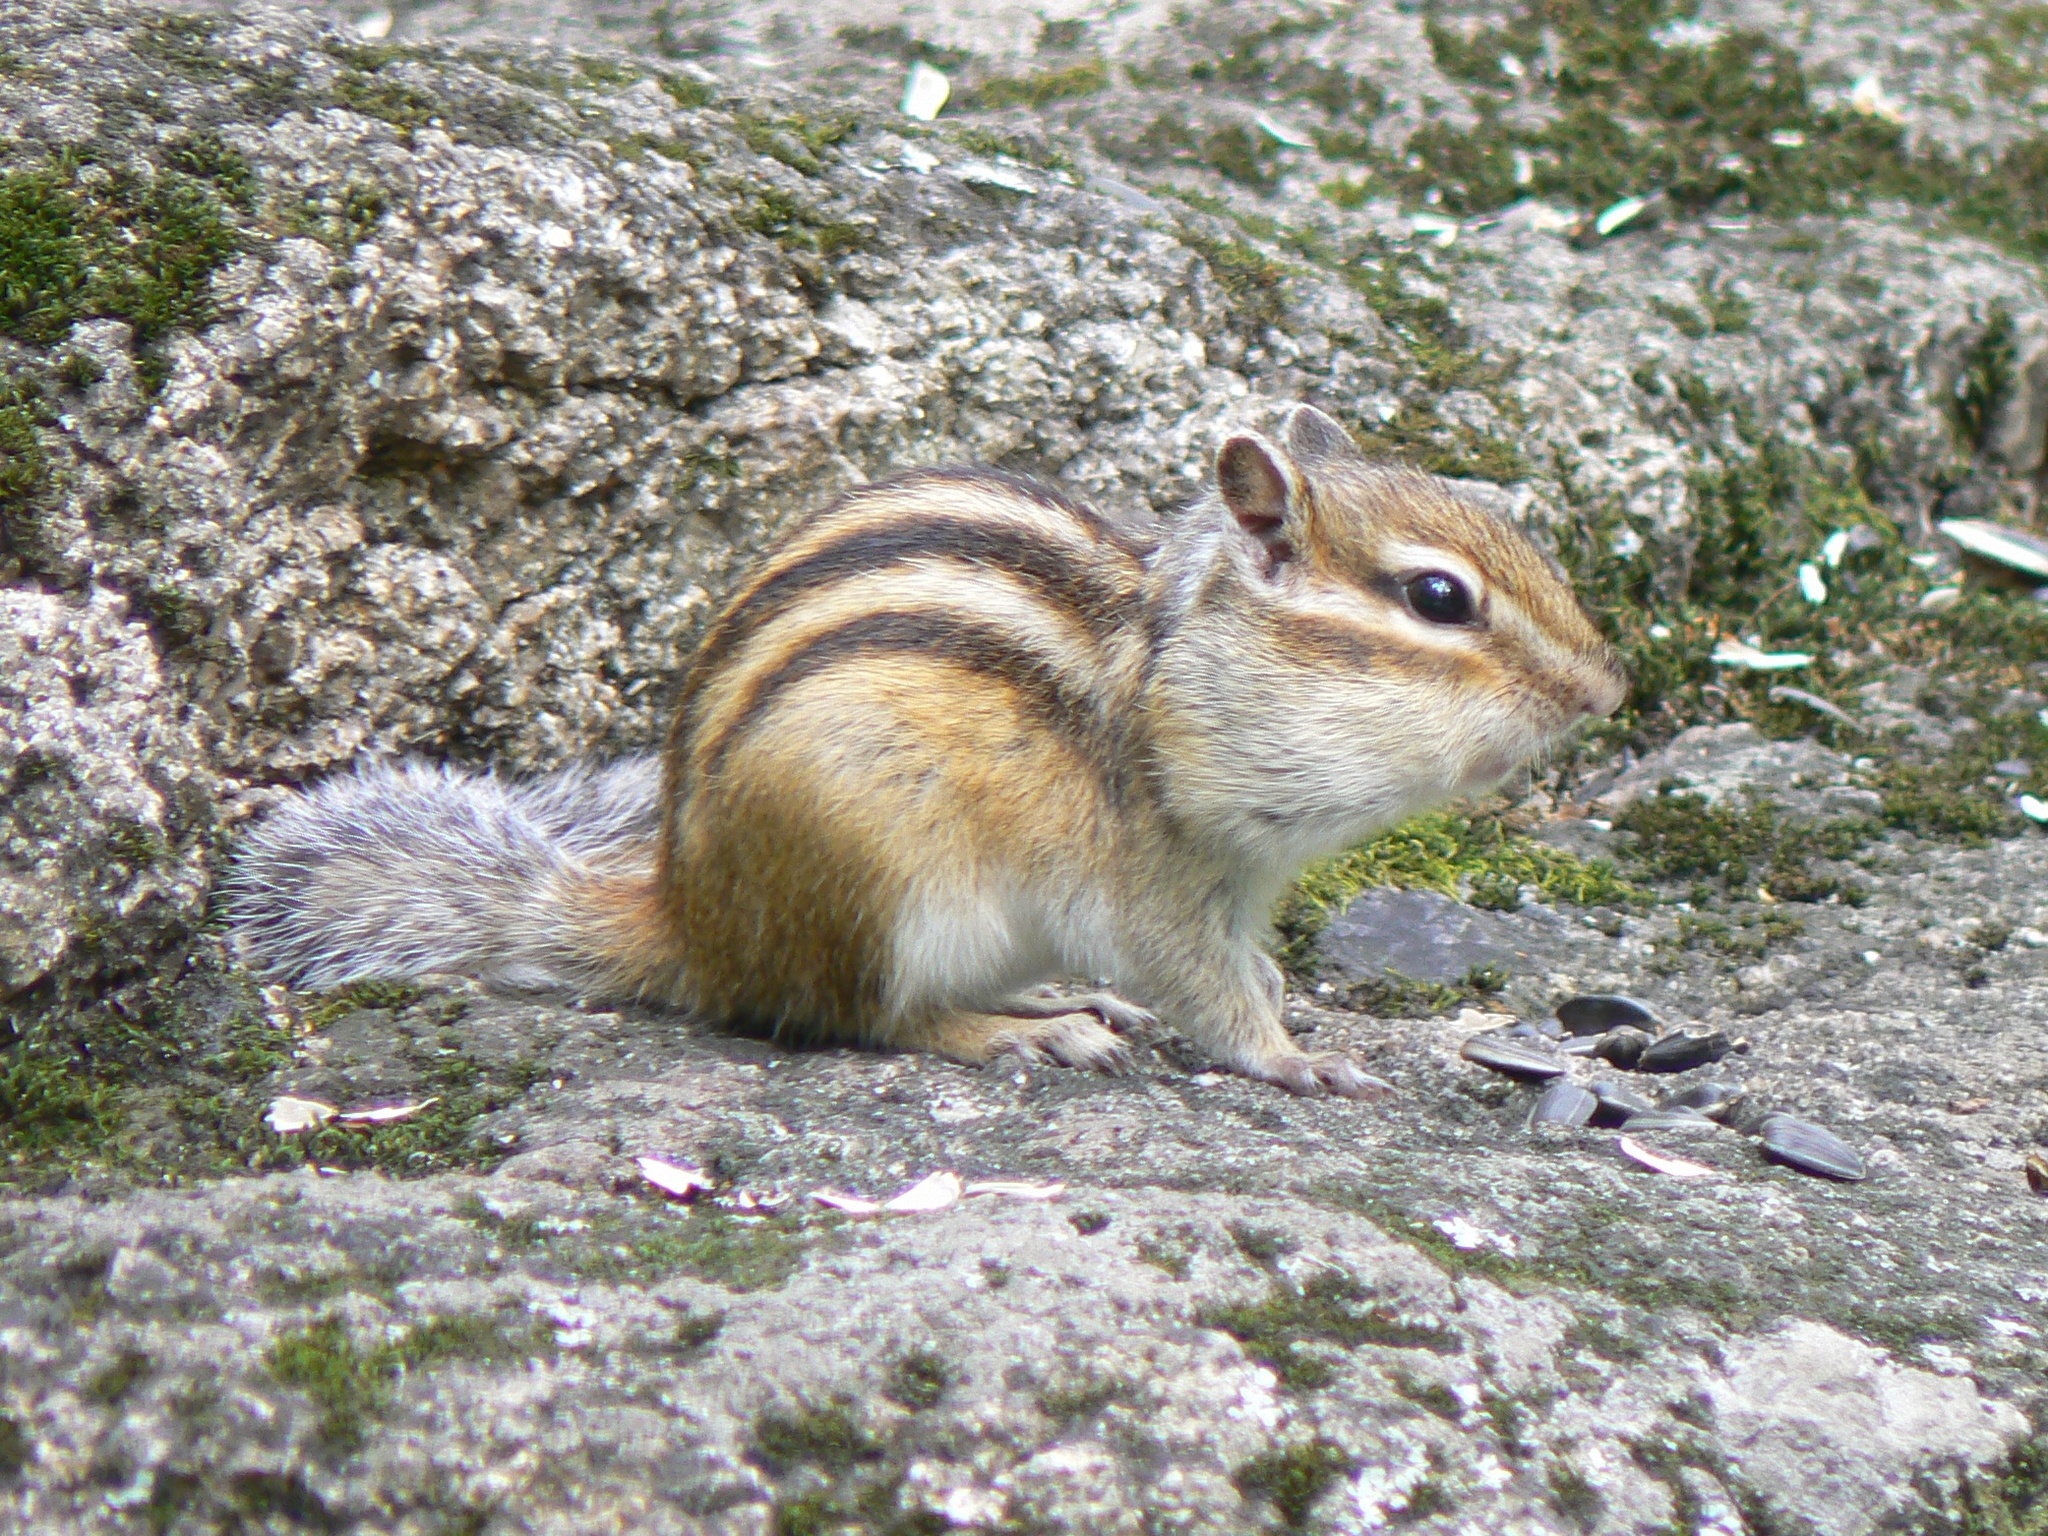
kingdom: Animalia
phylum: Chordata
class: Mammalia
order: Rodentia
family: Sciuridae
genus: Tamias
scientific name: Tamias sibiricus
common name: Siberian chipmunk
